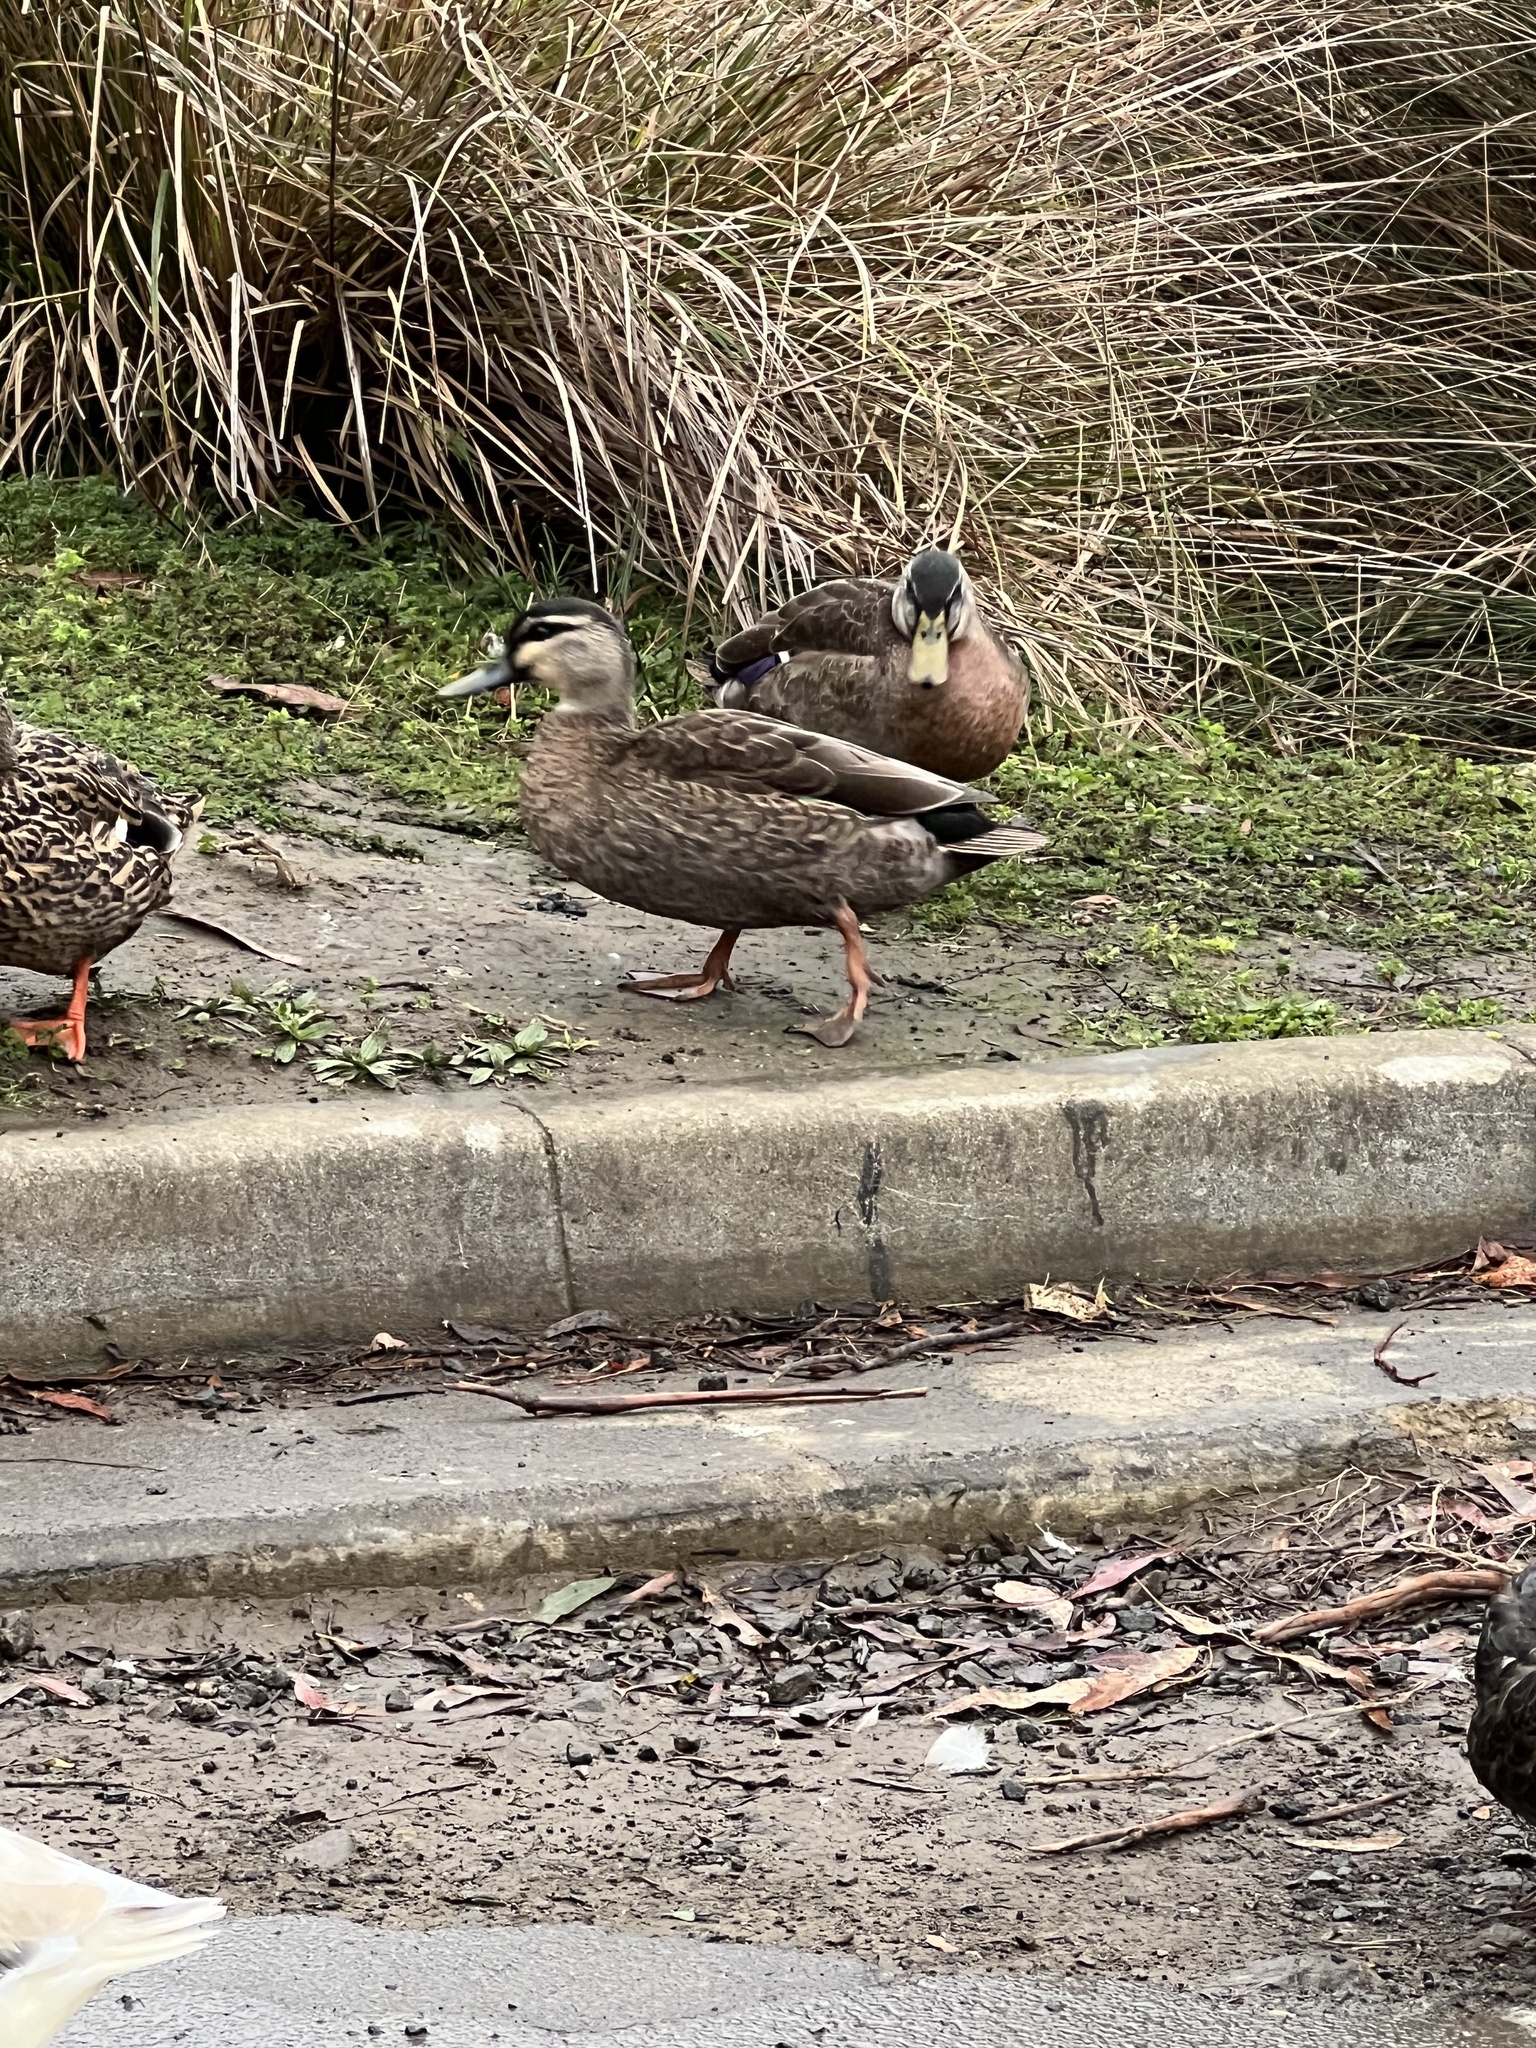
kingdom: Animalia
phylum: Chordata
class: Aves
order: Anseriformes
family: Anatidae
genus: Anas
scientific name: Anas
